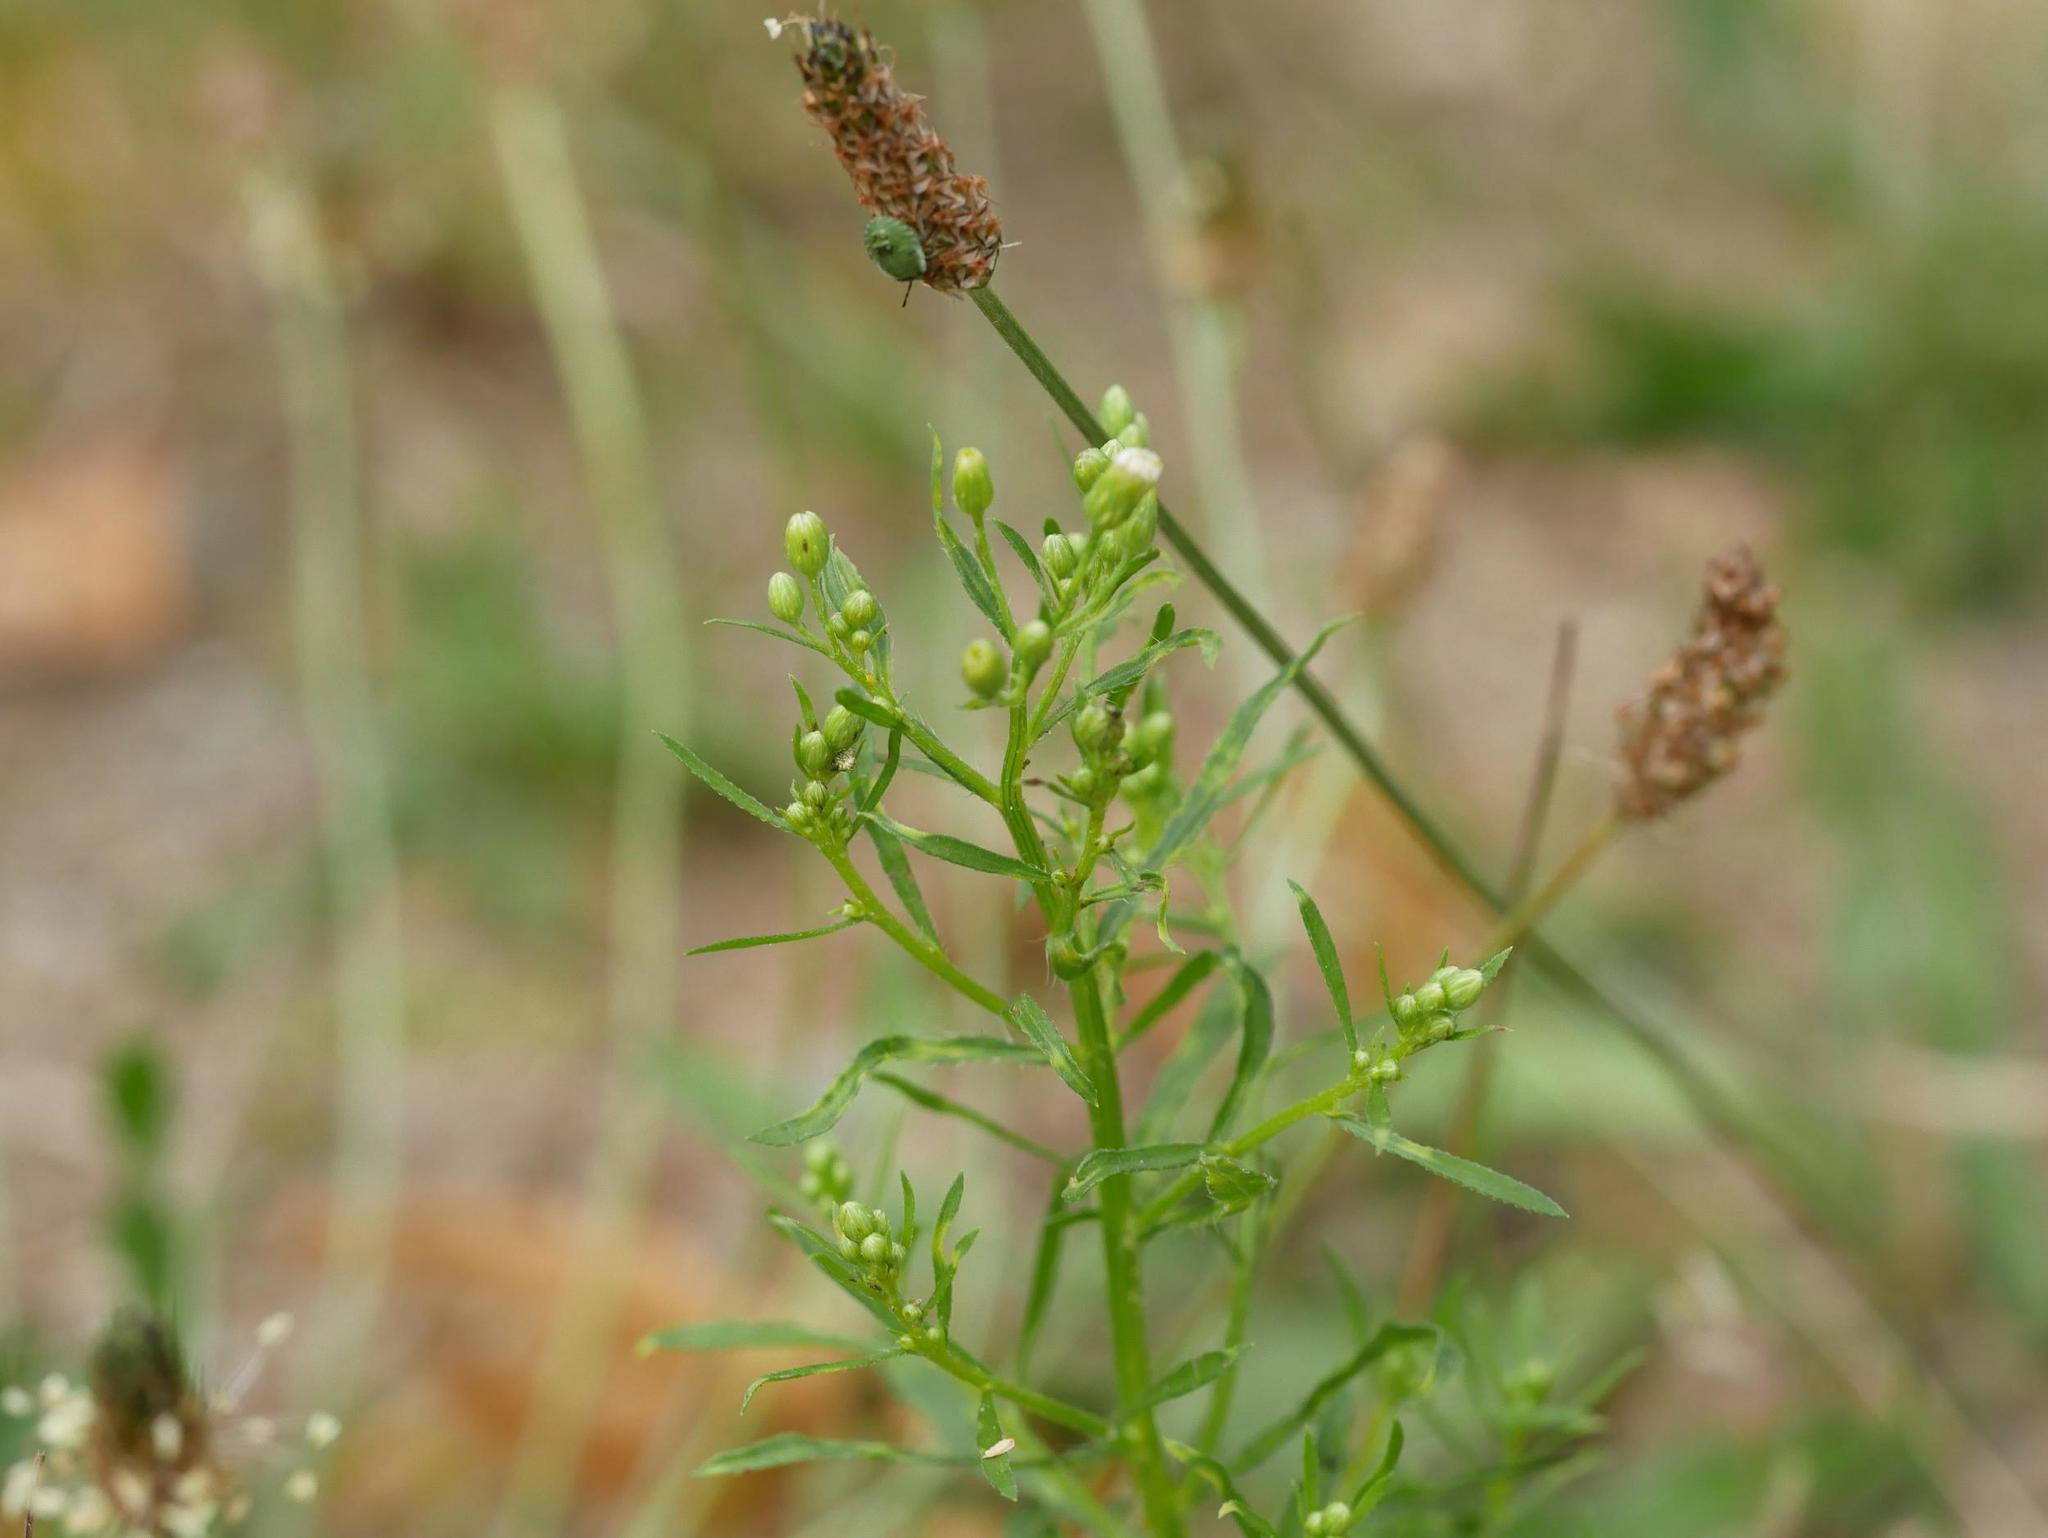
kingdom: Plantae
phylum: Tracheophyta
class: Magnoliopsida
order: Asterales
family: Asteraceae
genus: Erigeron
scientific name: Erigeron canadensis
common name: Canadian fleabane
